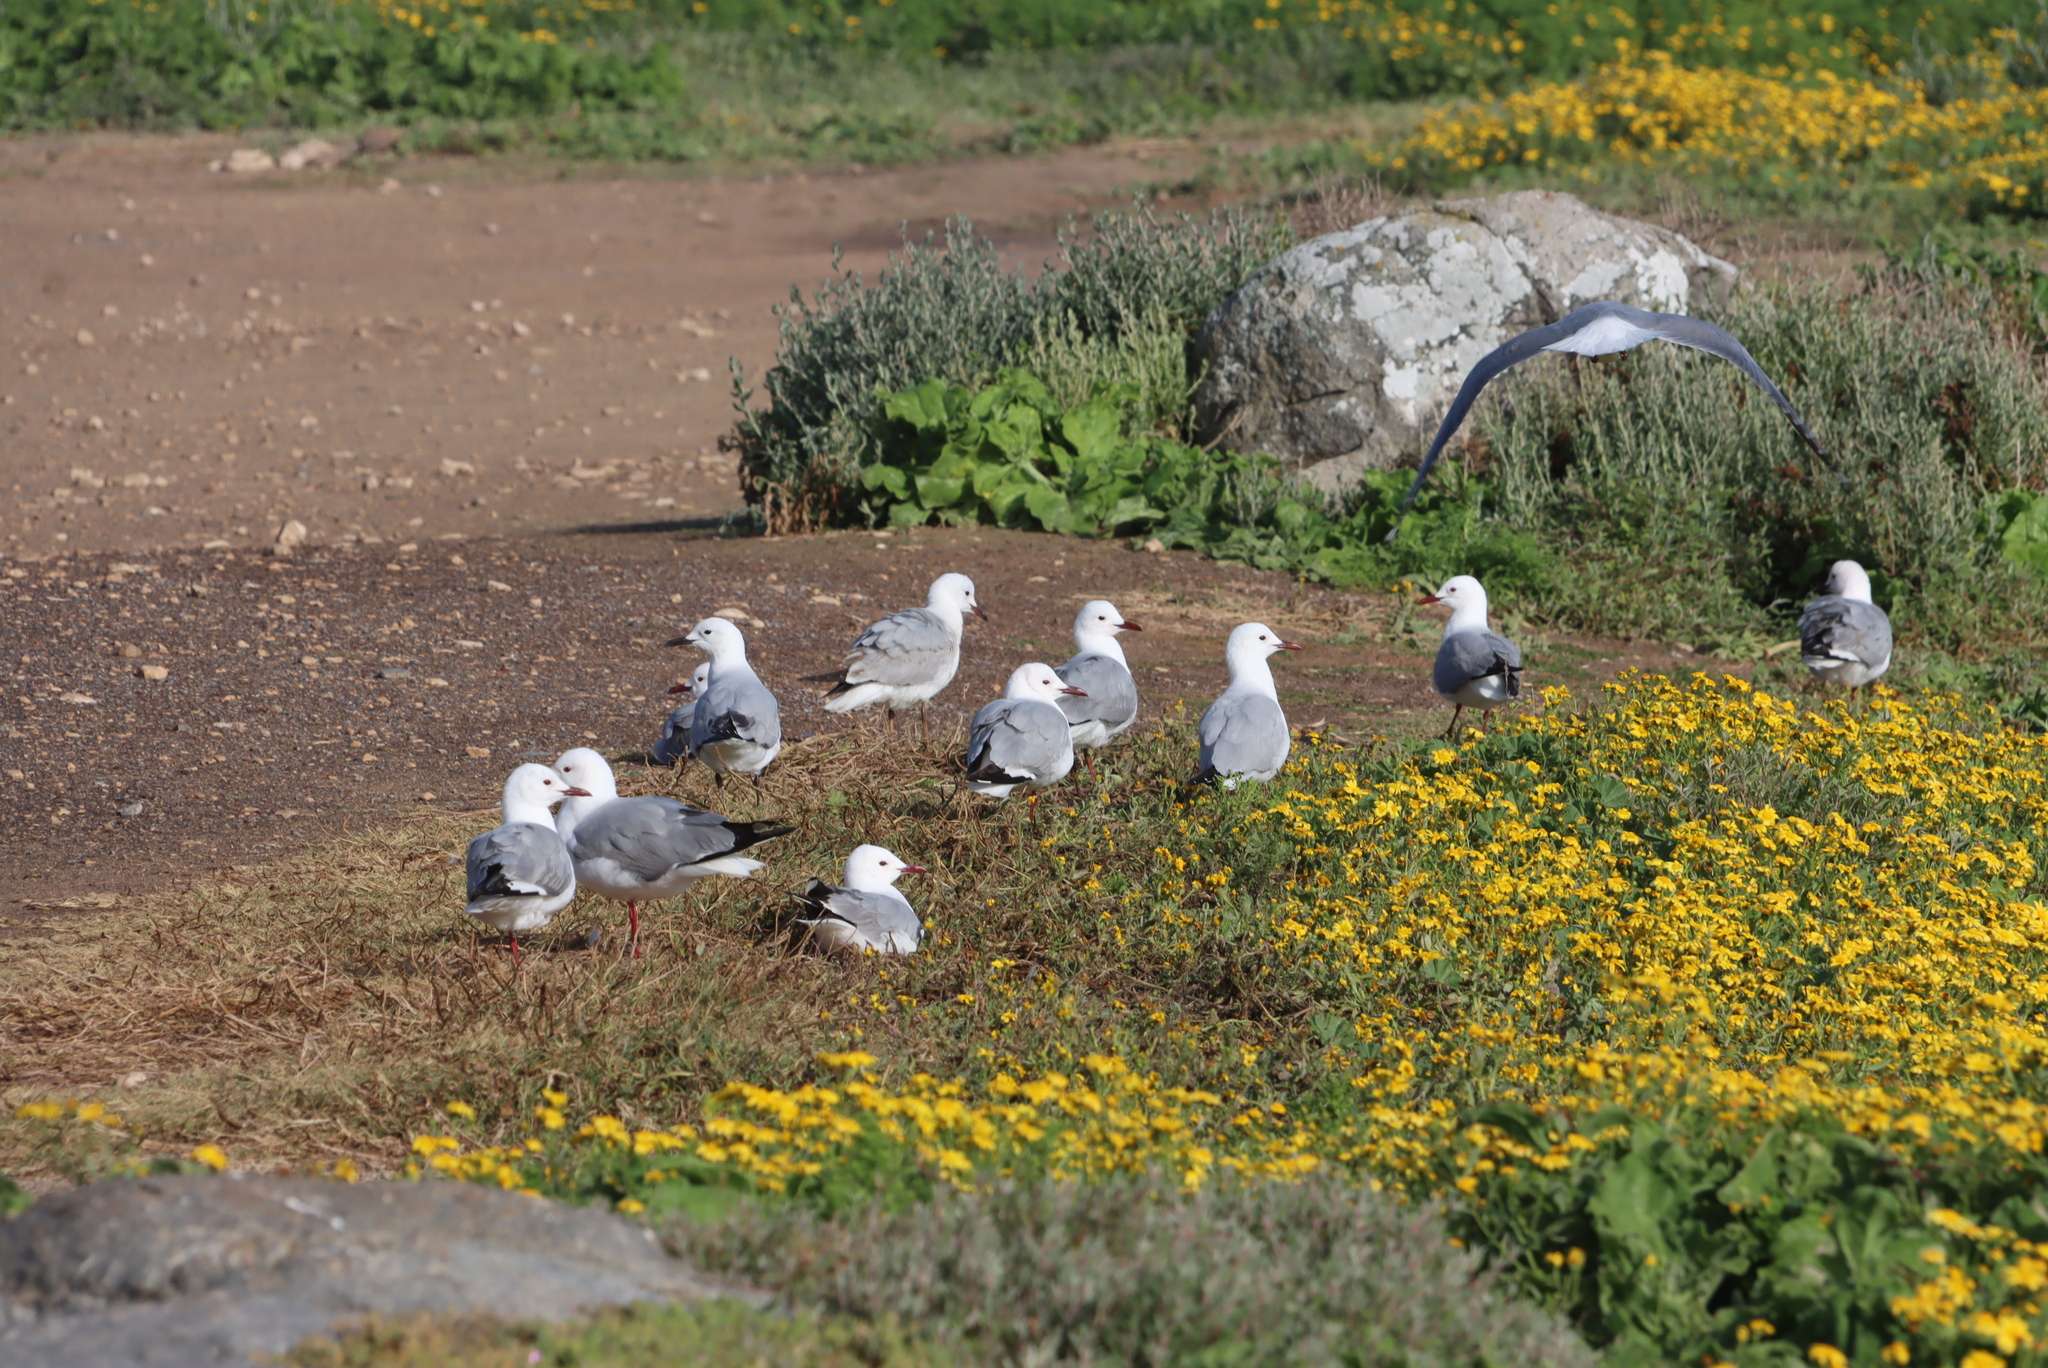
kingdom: Animalia
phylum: Chordata
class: Aves
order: Charadriiformes
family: Laridae
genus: Chroicocephalus
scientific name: Chroicocephalus hartlaubii
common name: Hartlaub's gull
